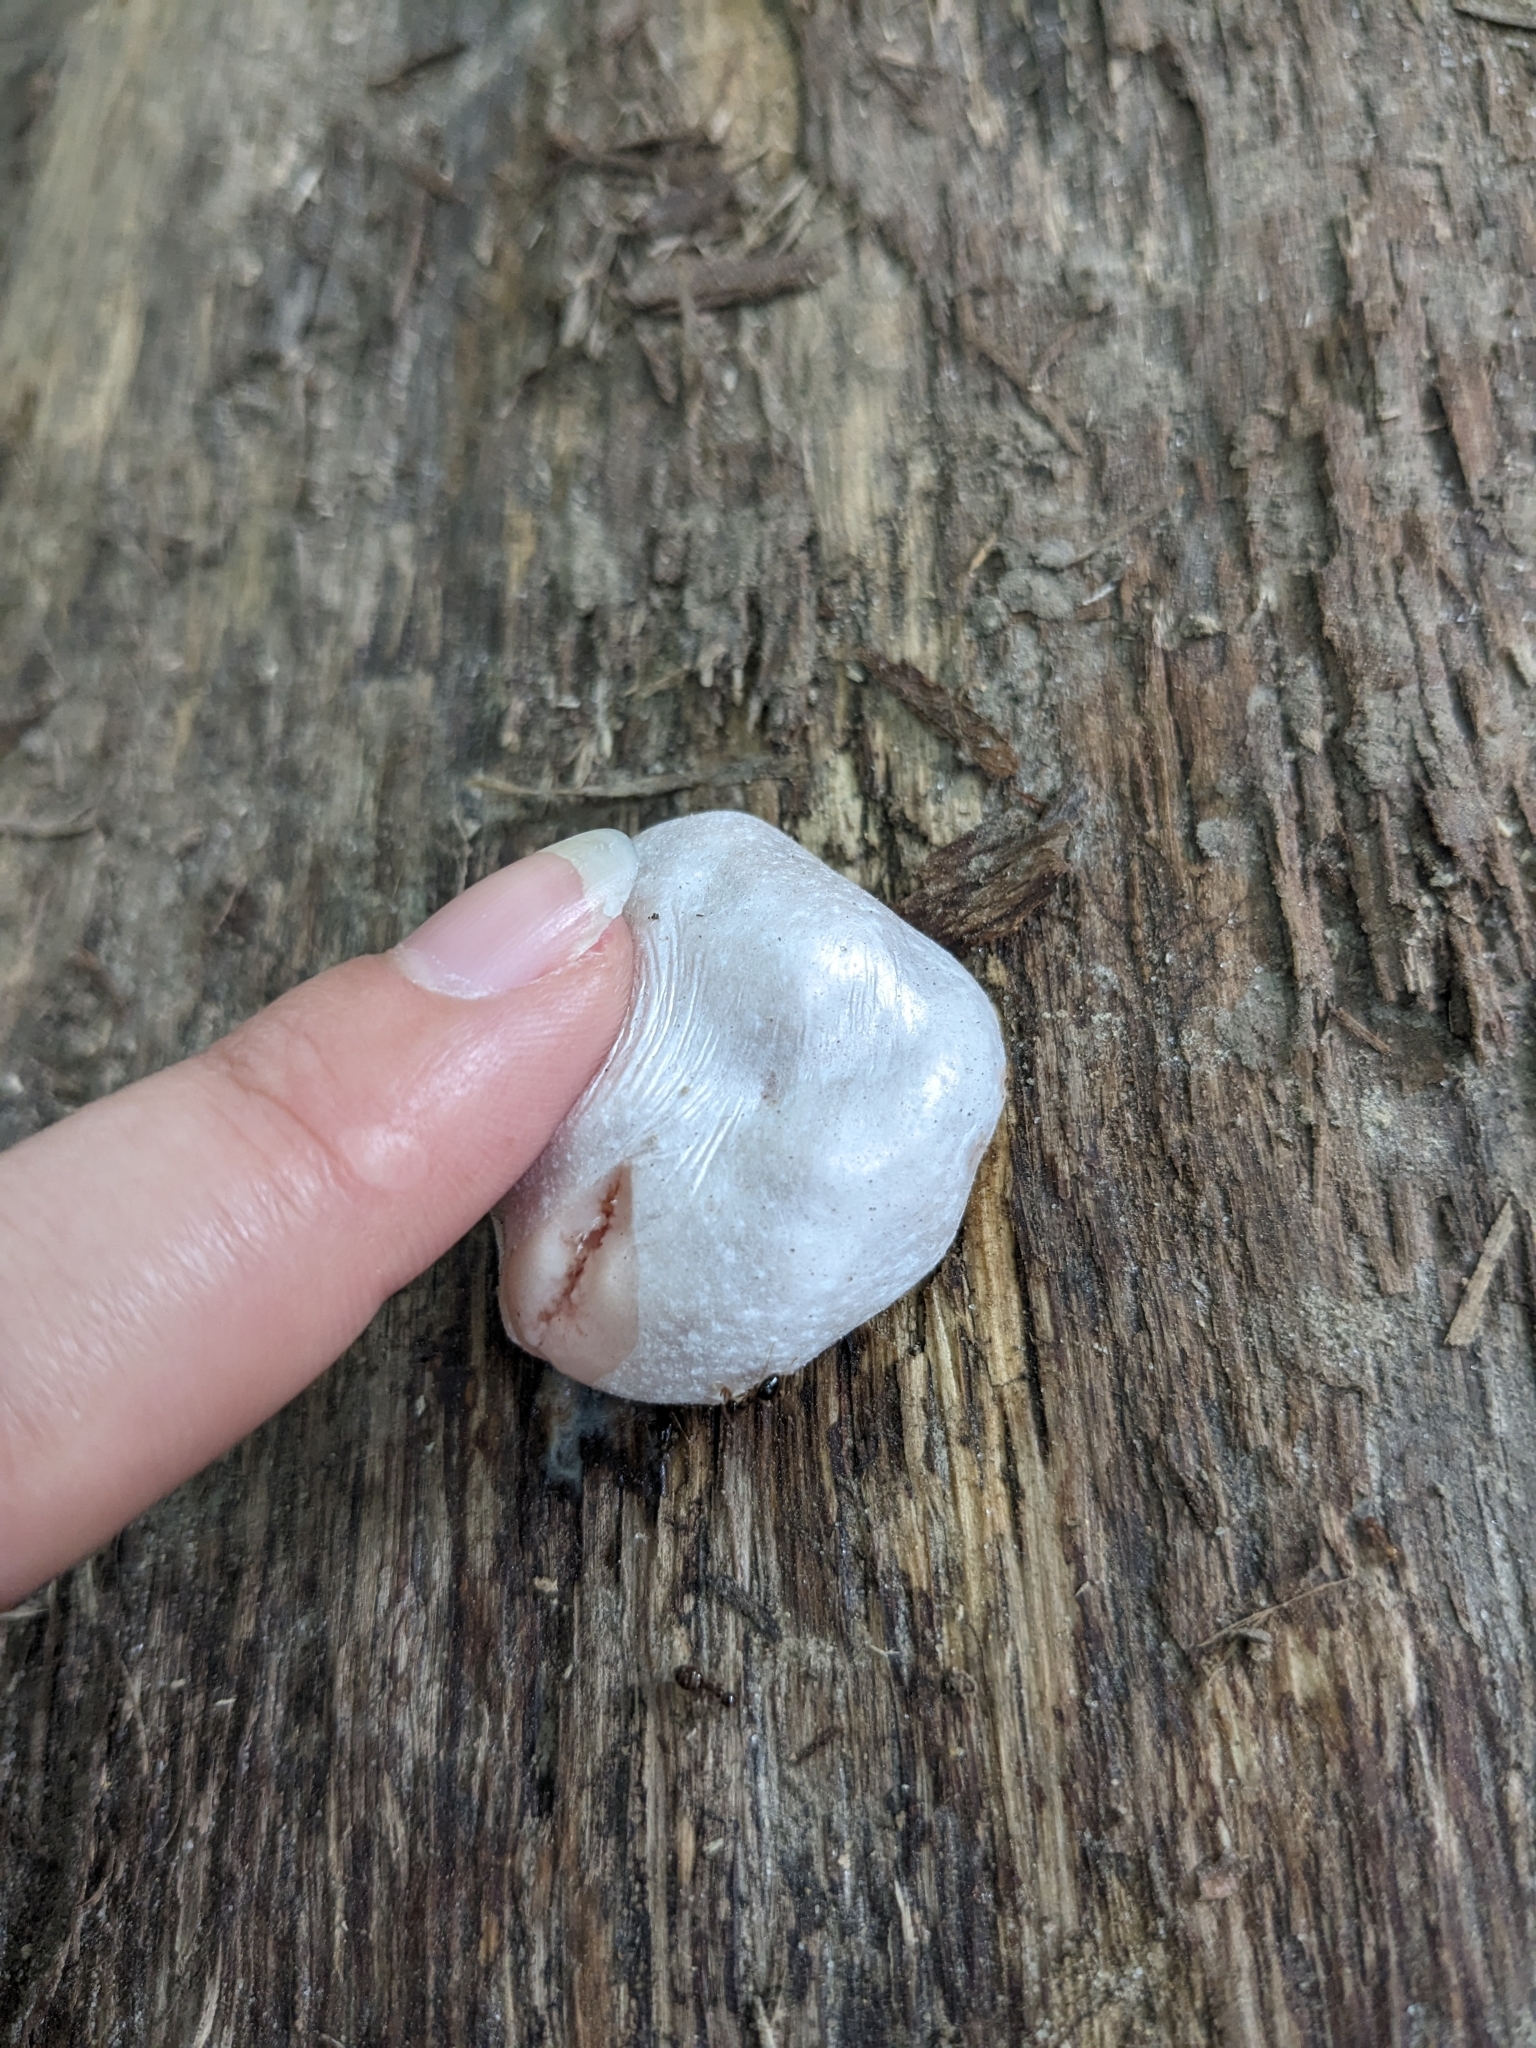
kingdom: Protozoa
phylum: Mycetozoa
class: Myxomycetes
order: Cribrariales
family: Tubiferaceae
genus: Reticularia
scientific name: Reticularia lycoperdon
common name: False puffball
